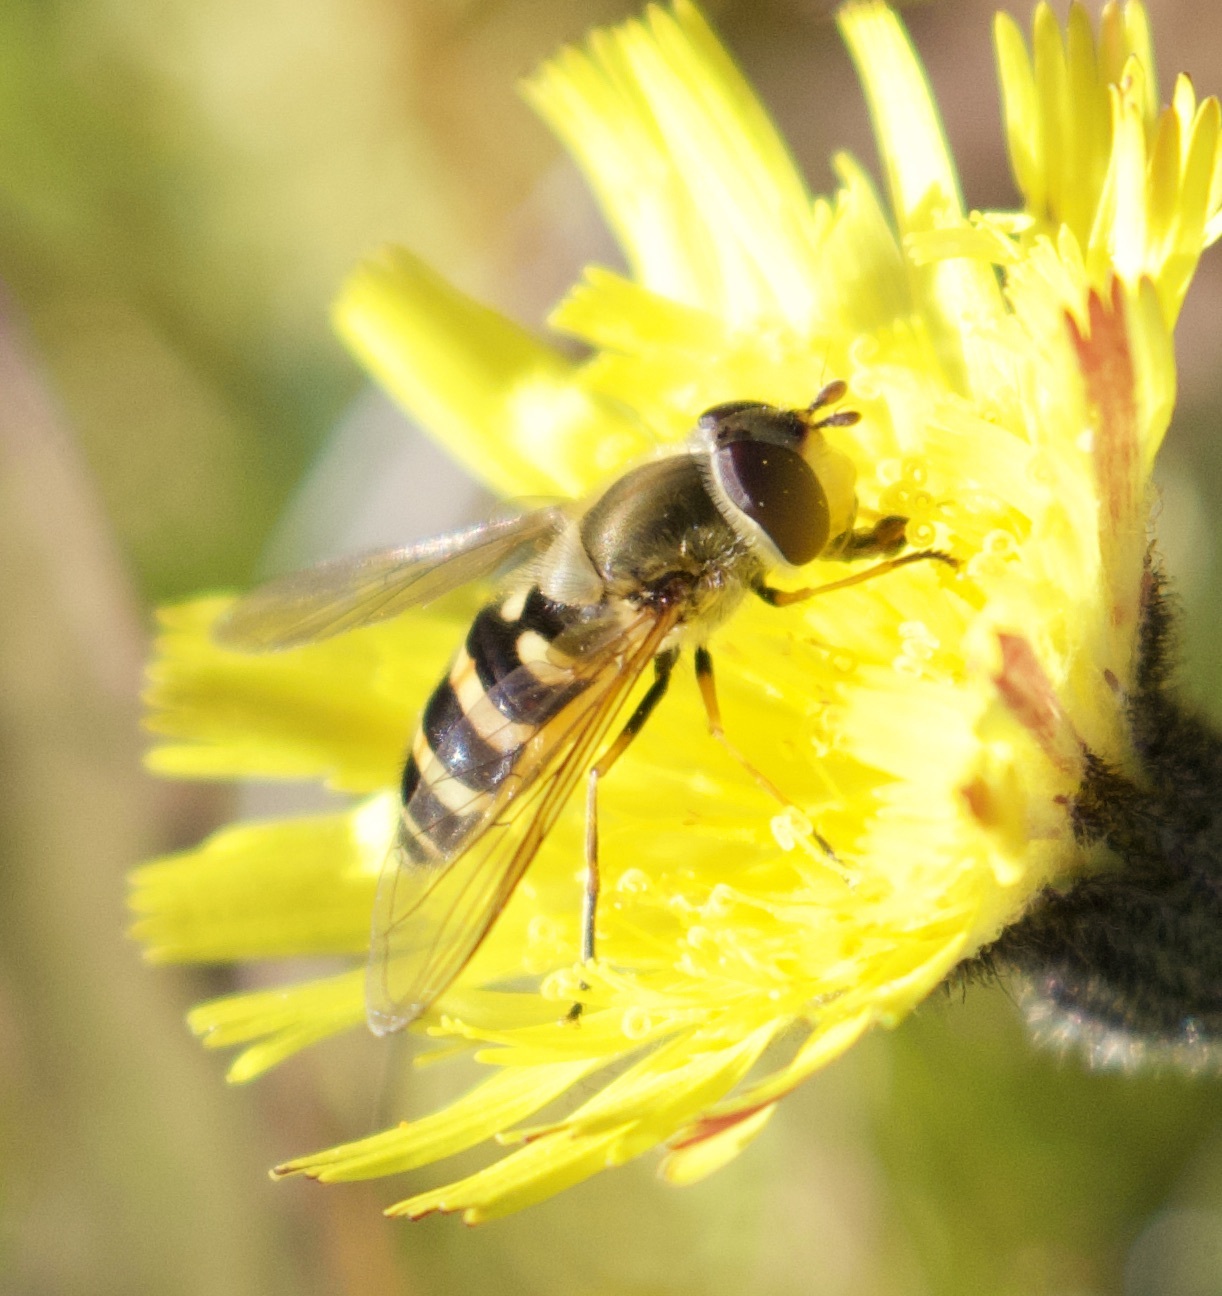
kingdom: Animalia
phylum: Arthropoda
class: Insecta
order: Diptera
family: Syrphidae
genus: Syrphus
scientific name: Syrphus
